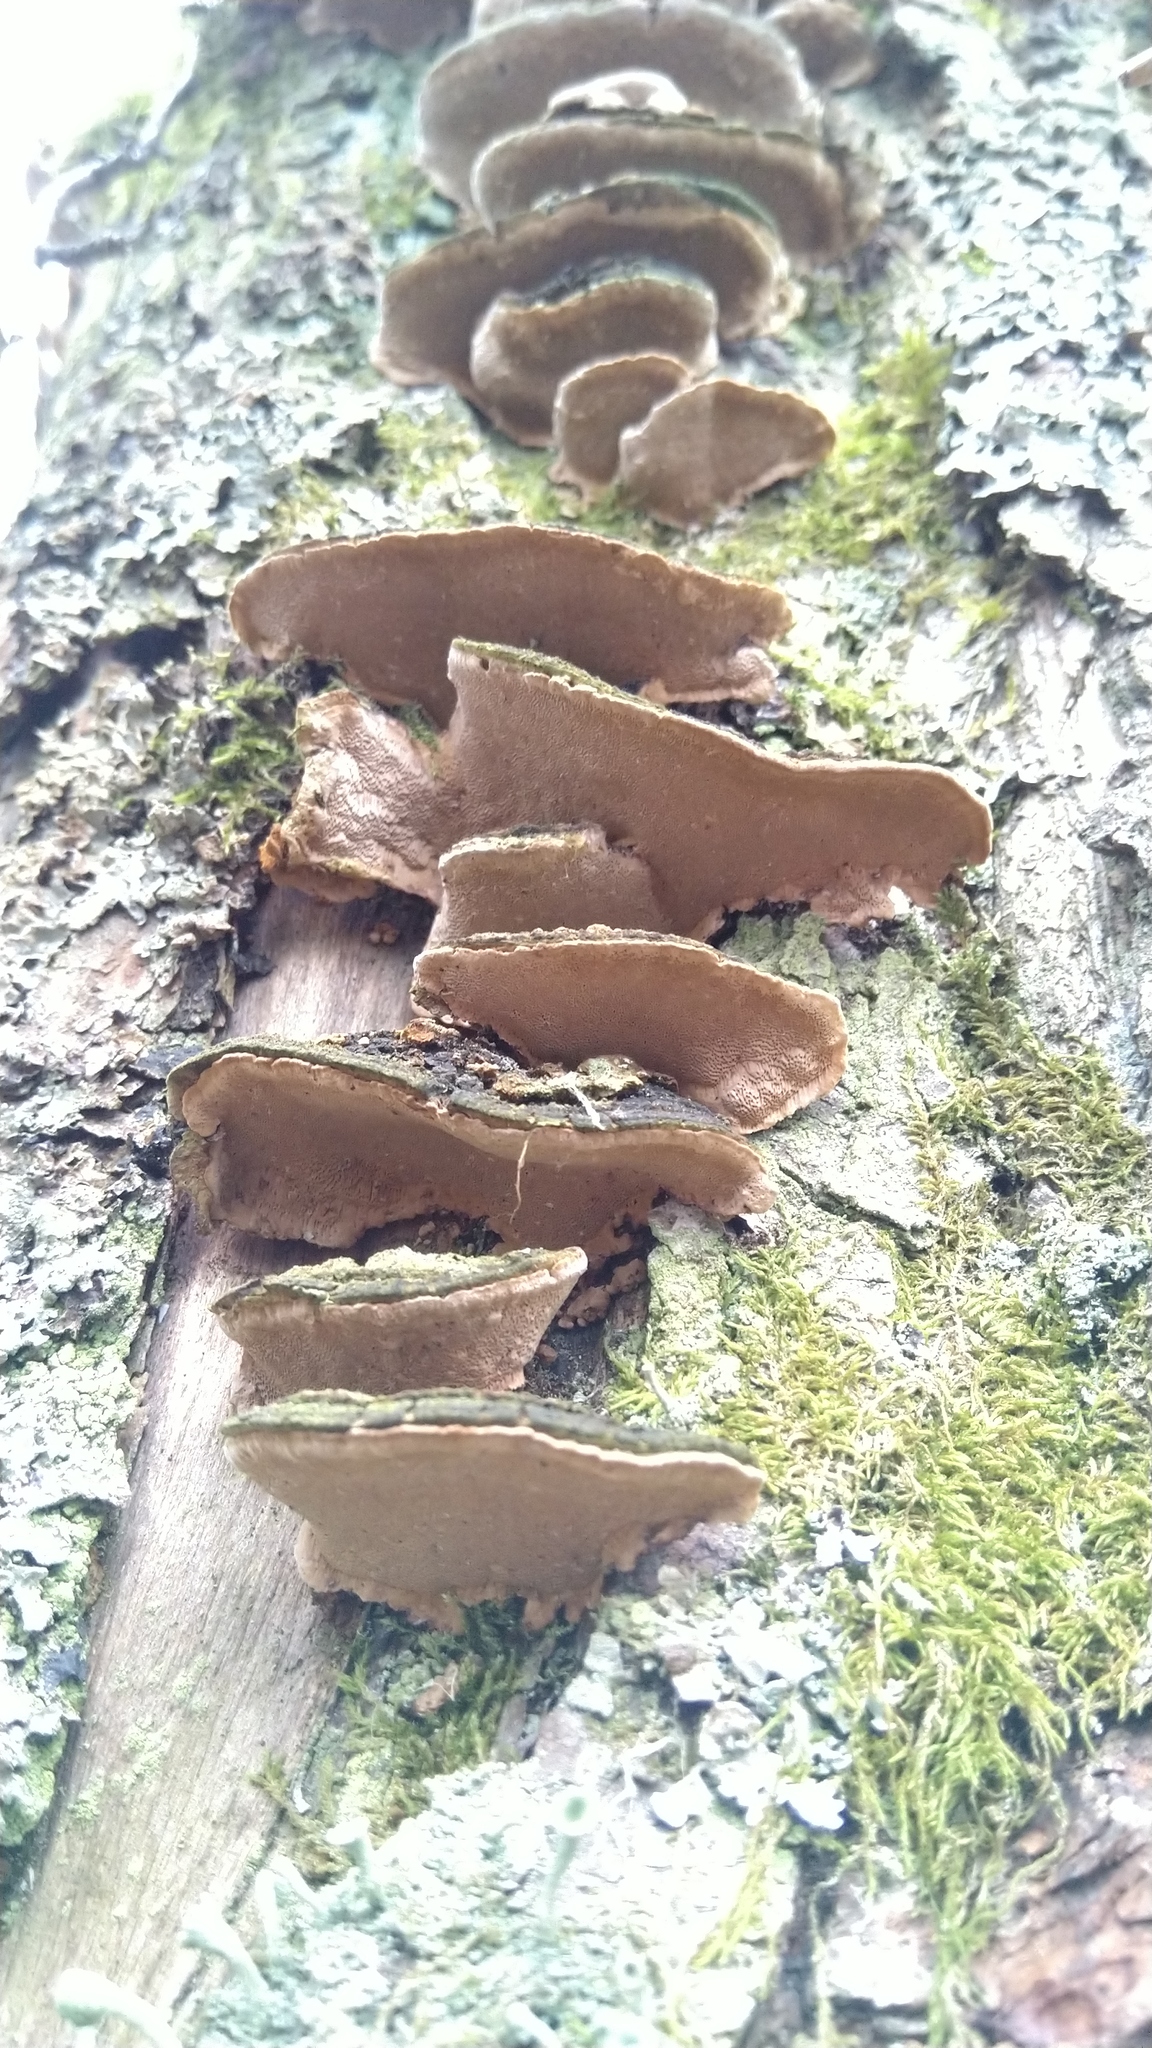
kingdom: Fungi
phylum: Basidiomycota
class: Agaricomycetes
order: Hymenochaetales
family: Hymenochaetaceae
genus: Phellinopsis
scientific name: Phellinopsis conchata
